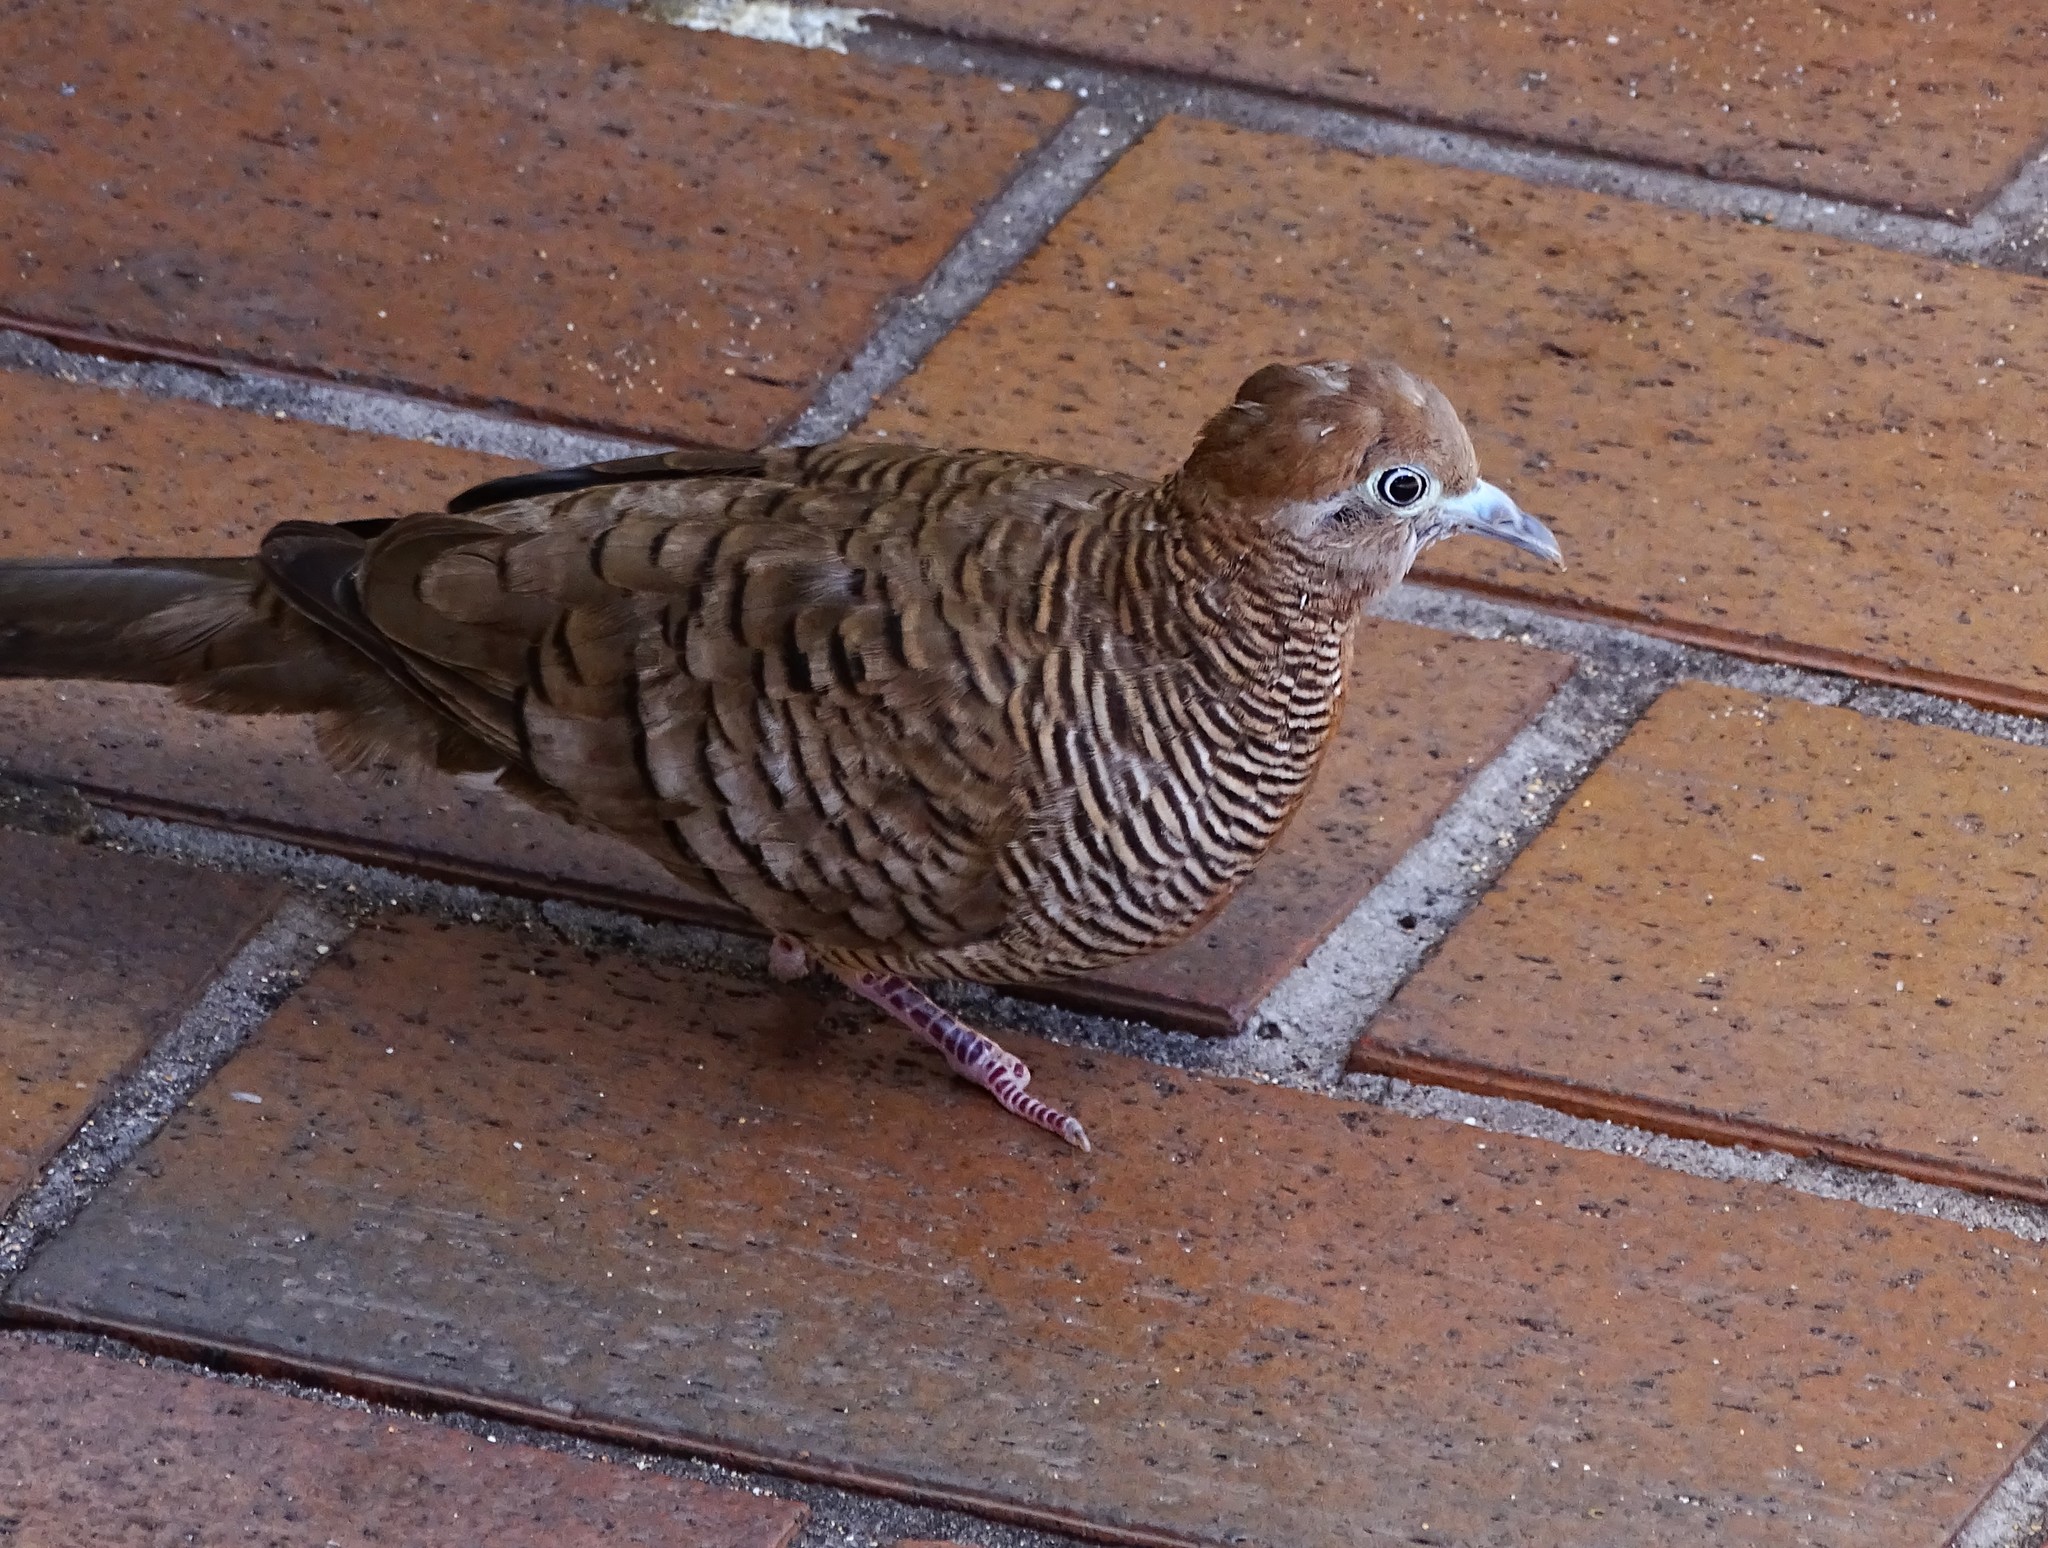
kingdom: Animalia
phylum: Chordata
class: Aves
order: Columbiformes
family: Columbidae
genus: Geopelia
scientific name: Geopelia striata
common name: Zebra dove
